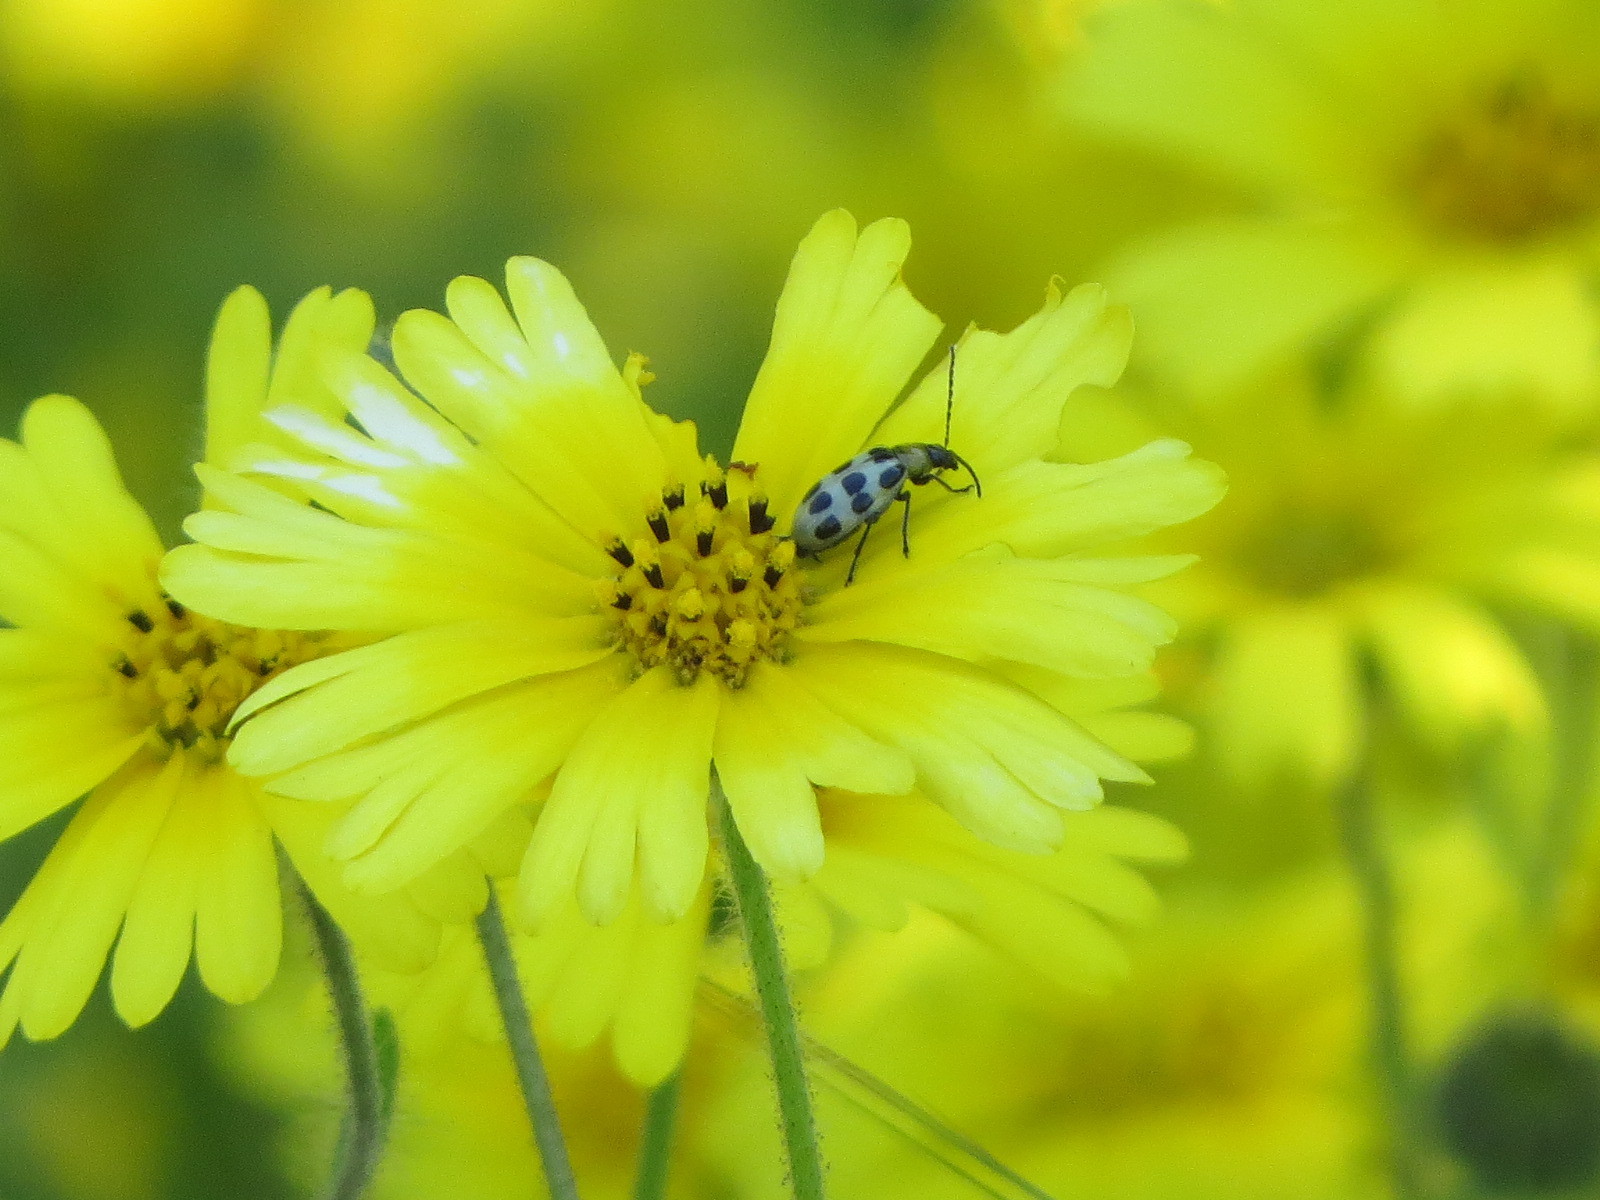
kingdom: Animalia
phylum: Arthropoda
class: Insecta
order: Coleoptera
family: Chrysomelidae
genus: Diabrotica
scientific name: Diabrotica undecimpunctata
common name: Spotted cucumber beetle
